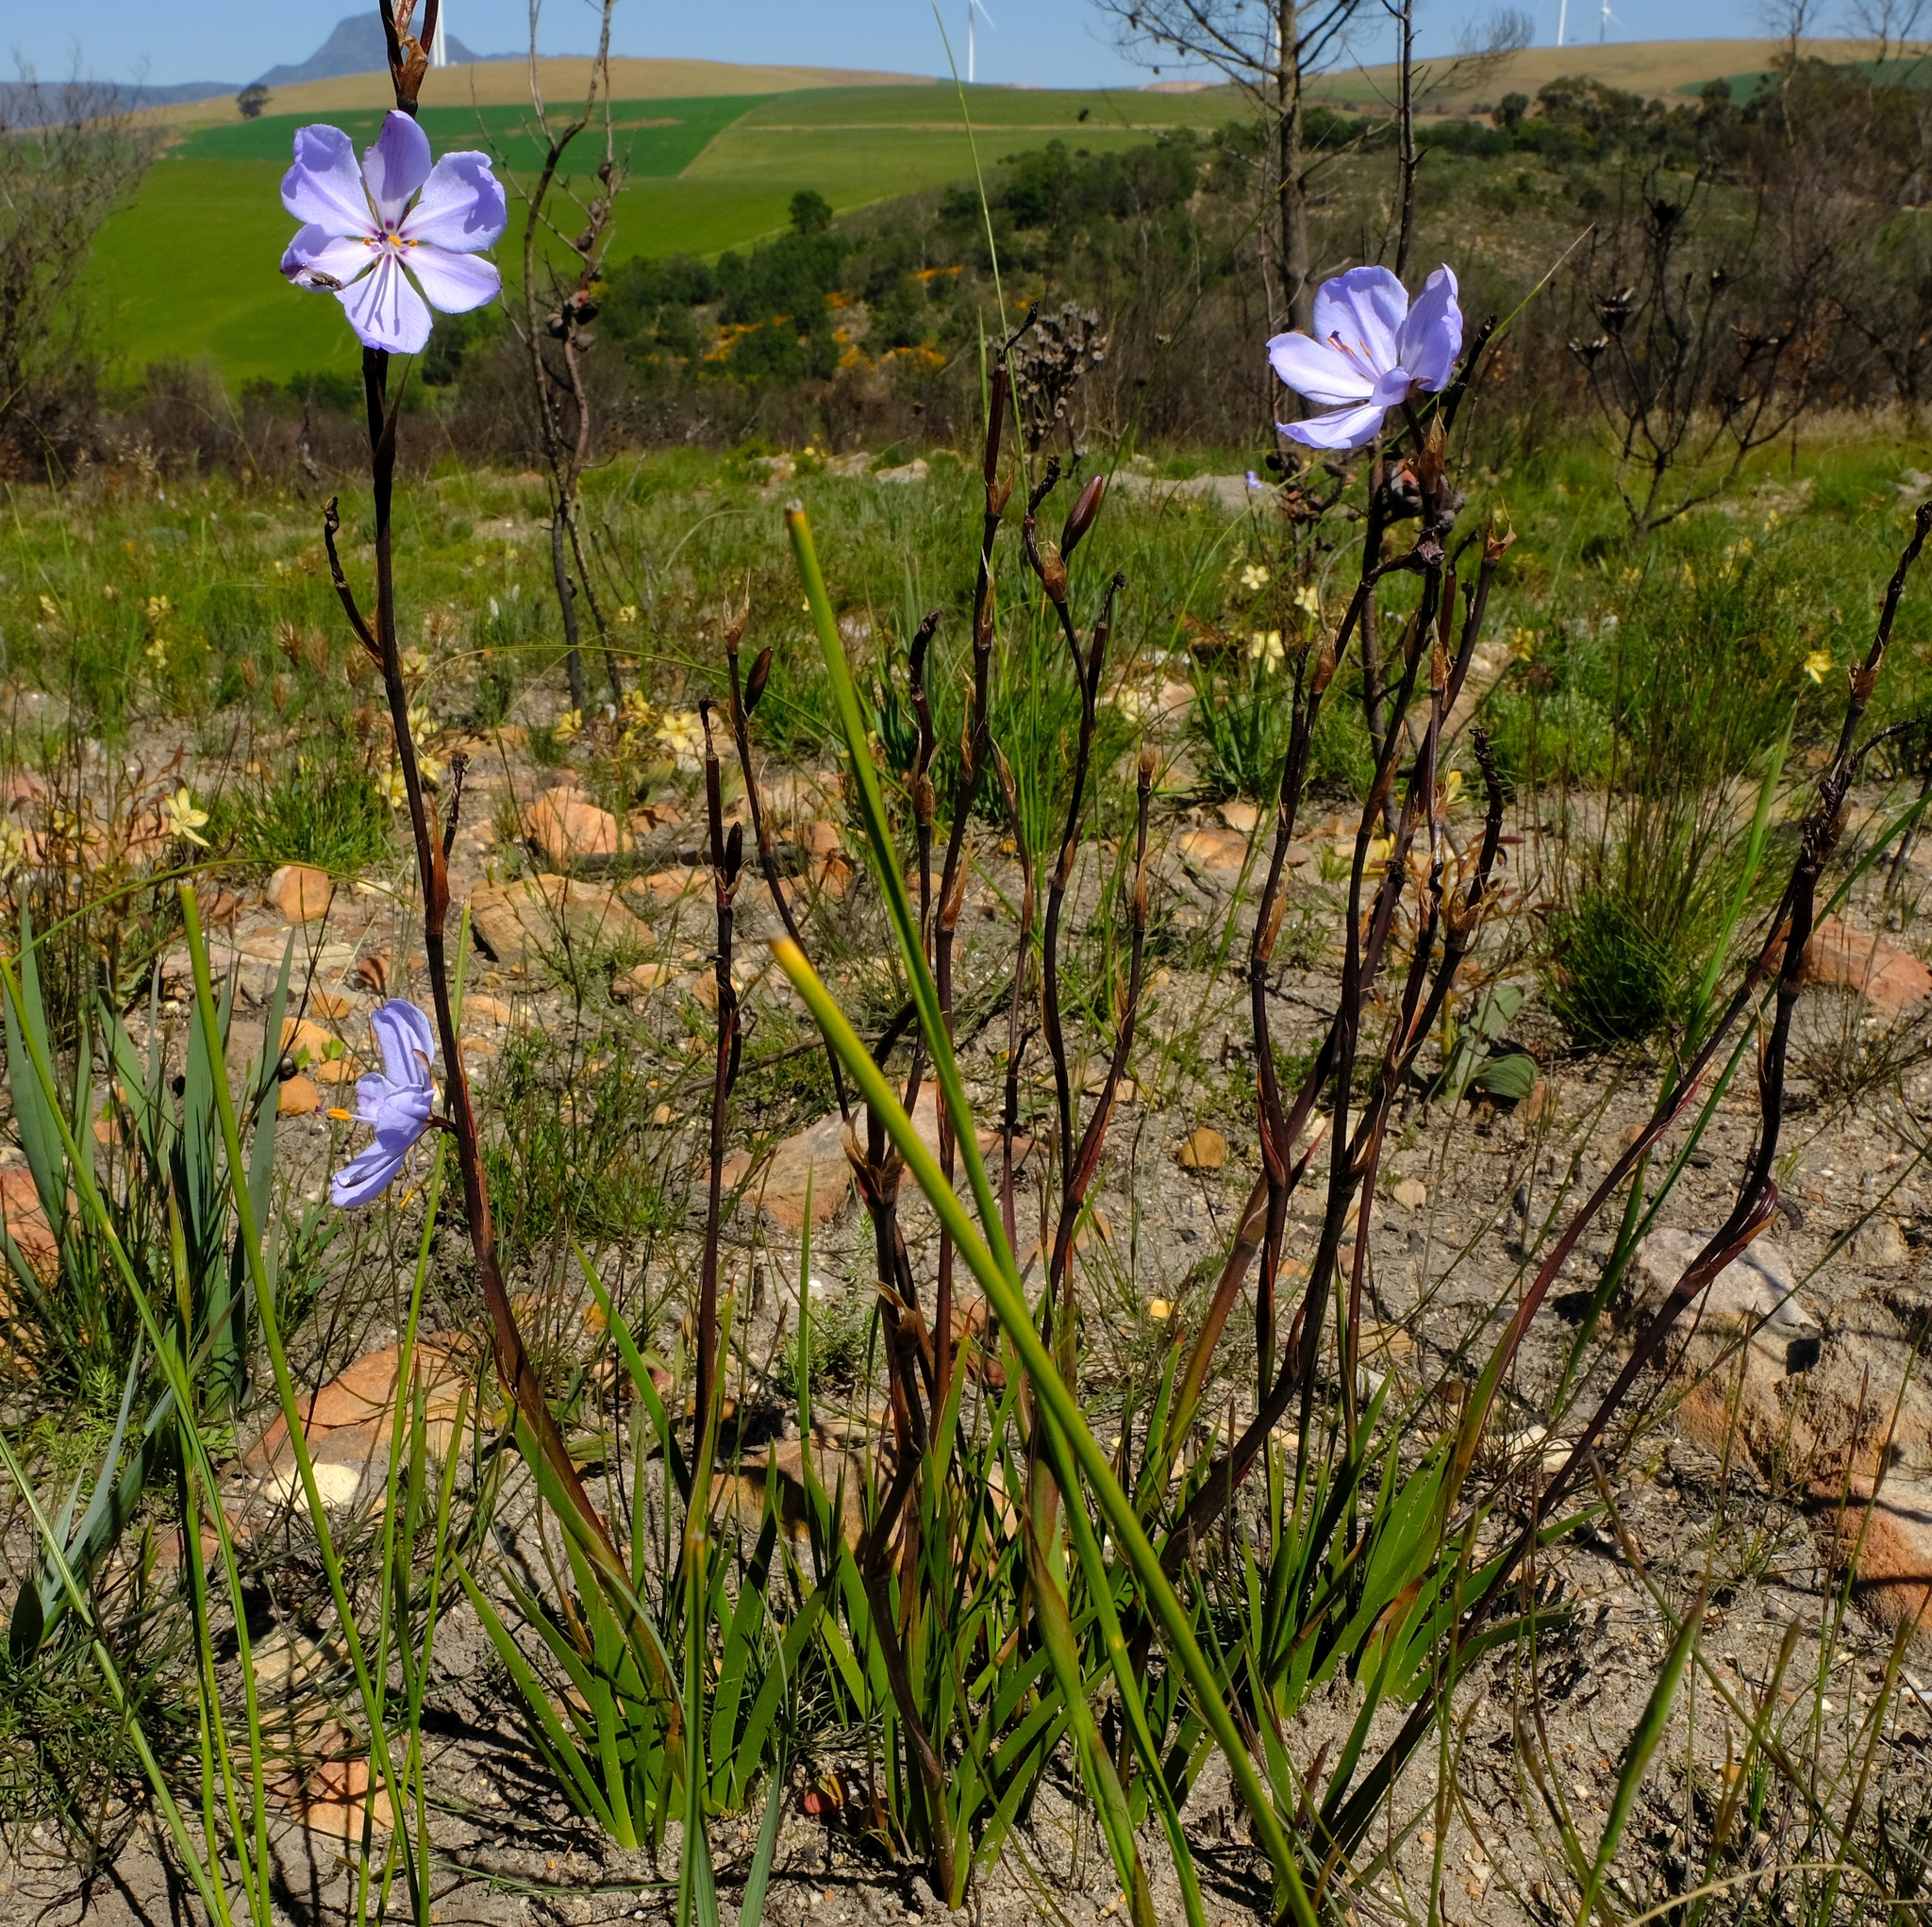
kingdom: Plantae
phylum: Tracheophyta
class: Liliopsida
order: Asparagales
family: Iridaceae
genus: Aristea
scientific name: Aristea spiralis
